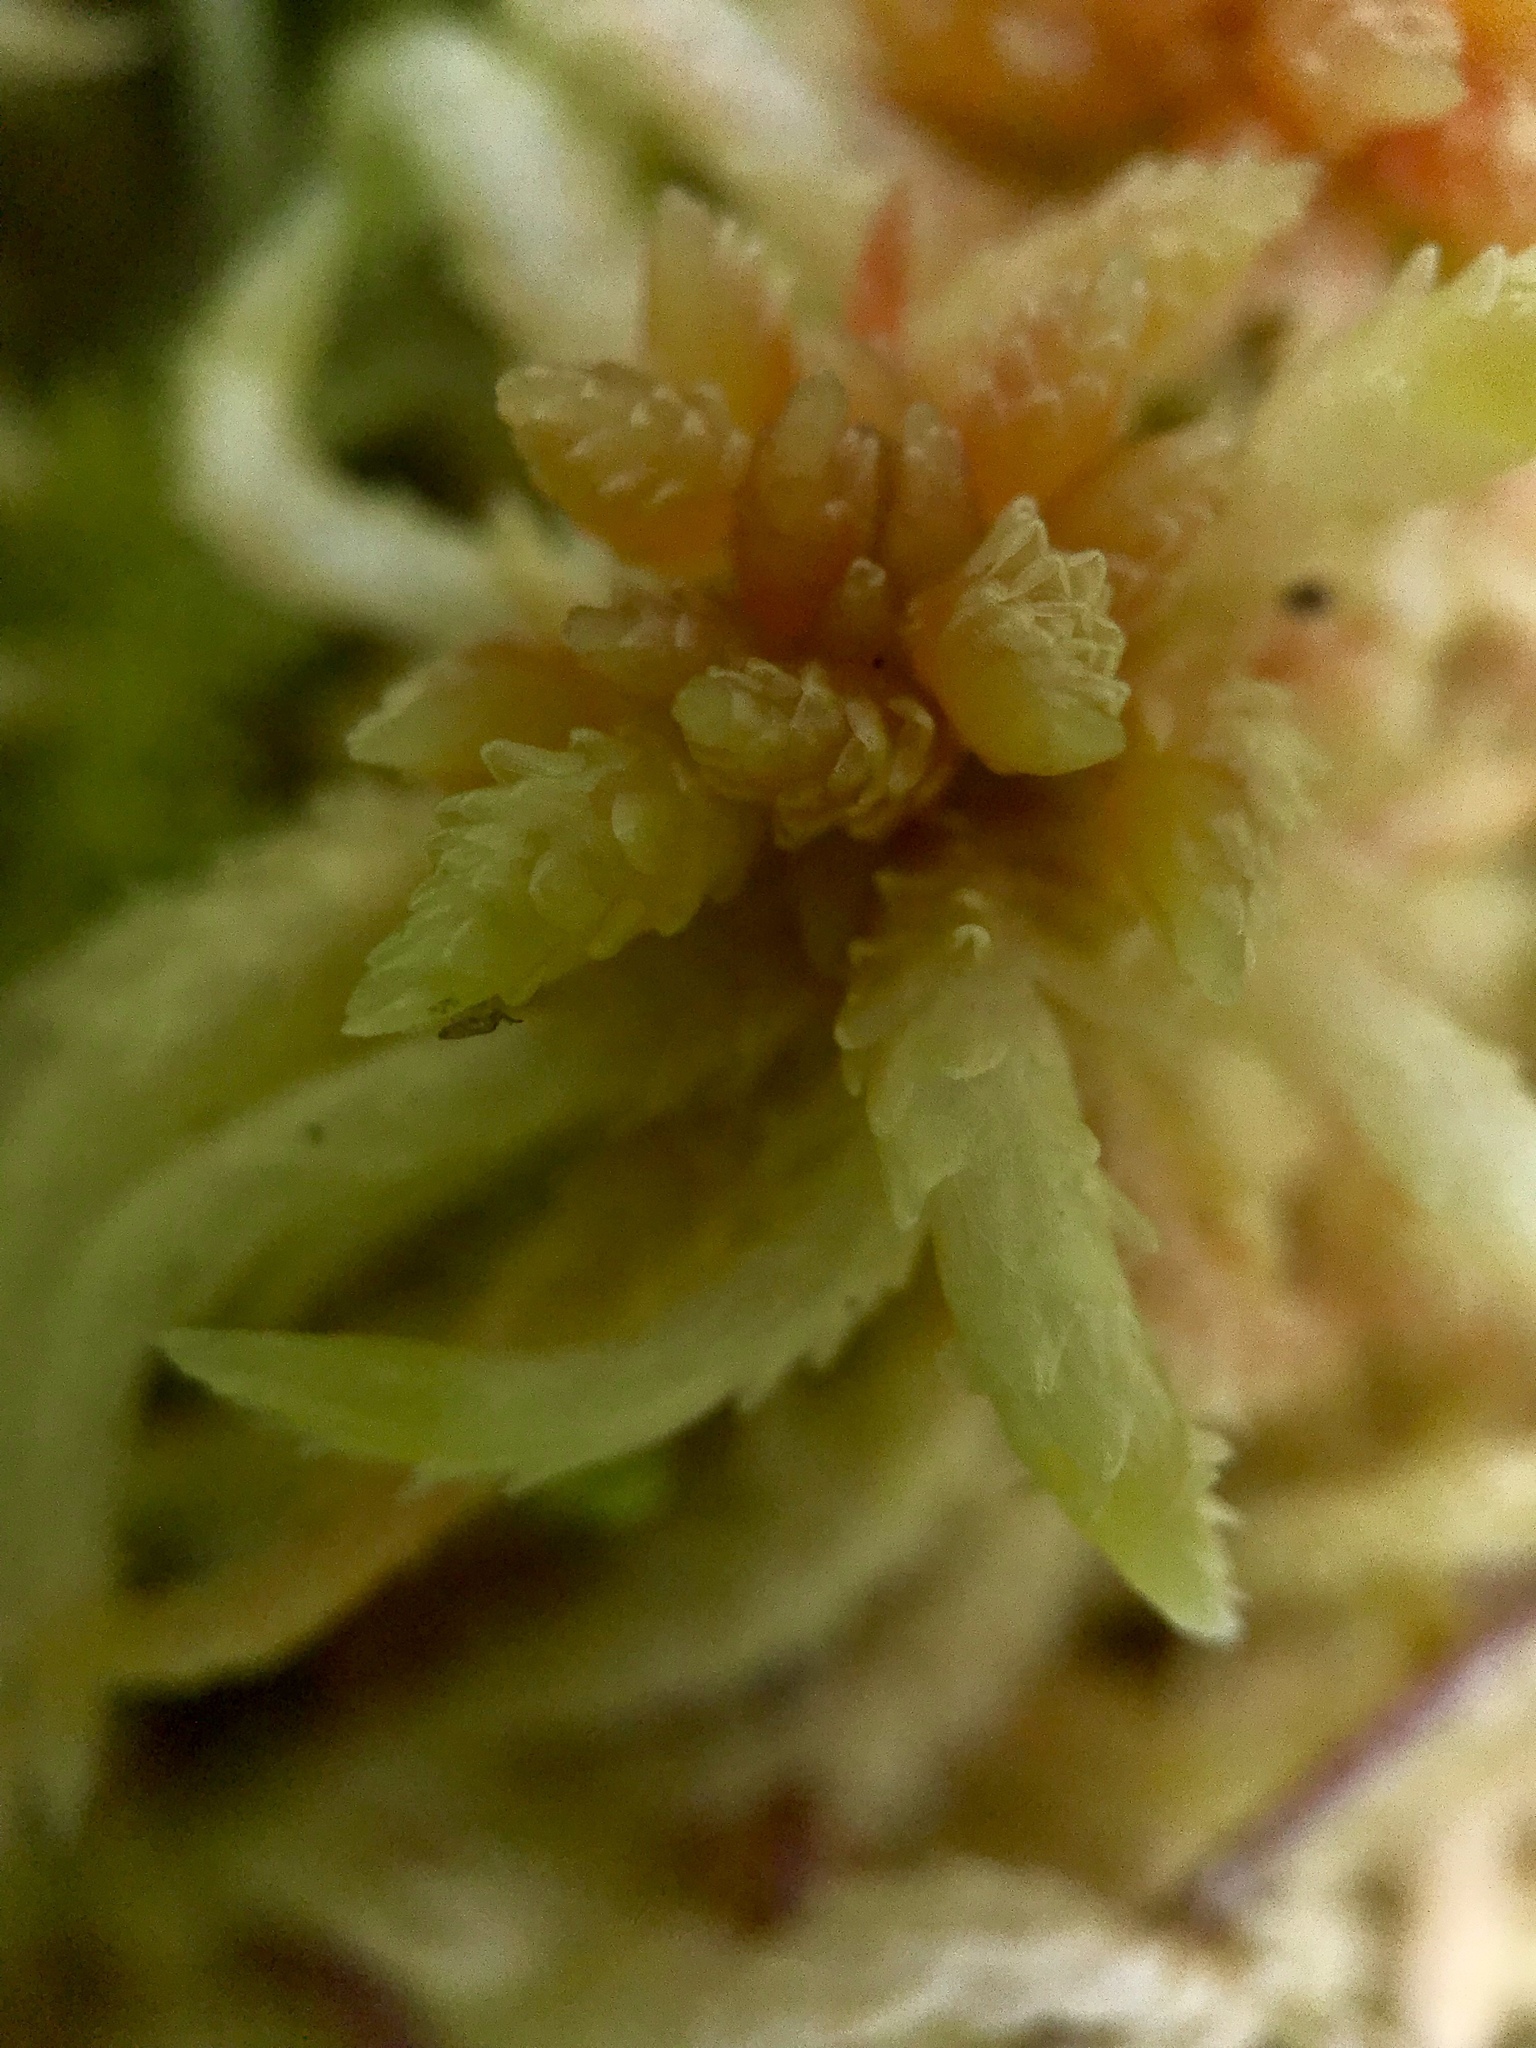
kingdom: Plantae
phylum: Bryophyta
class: Sphagnopsida
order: Sphagnales
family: Sphagnaceae
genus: Sphagnum
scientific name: Sphagnum palustre
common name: Blunt-leaved bog-moss
